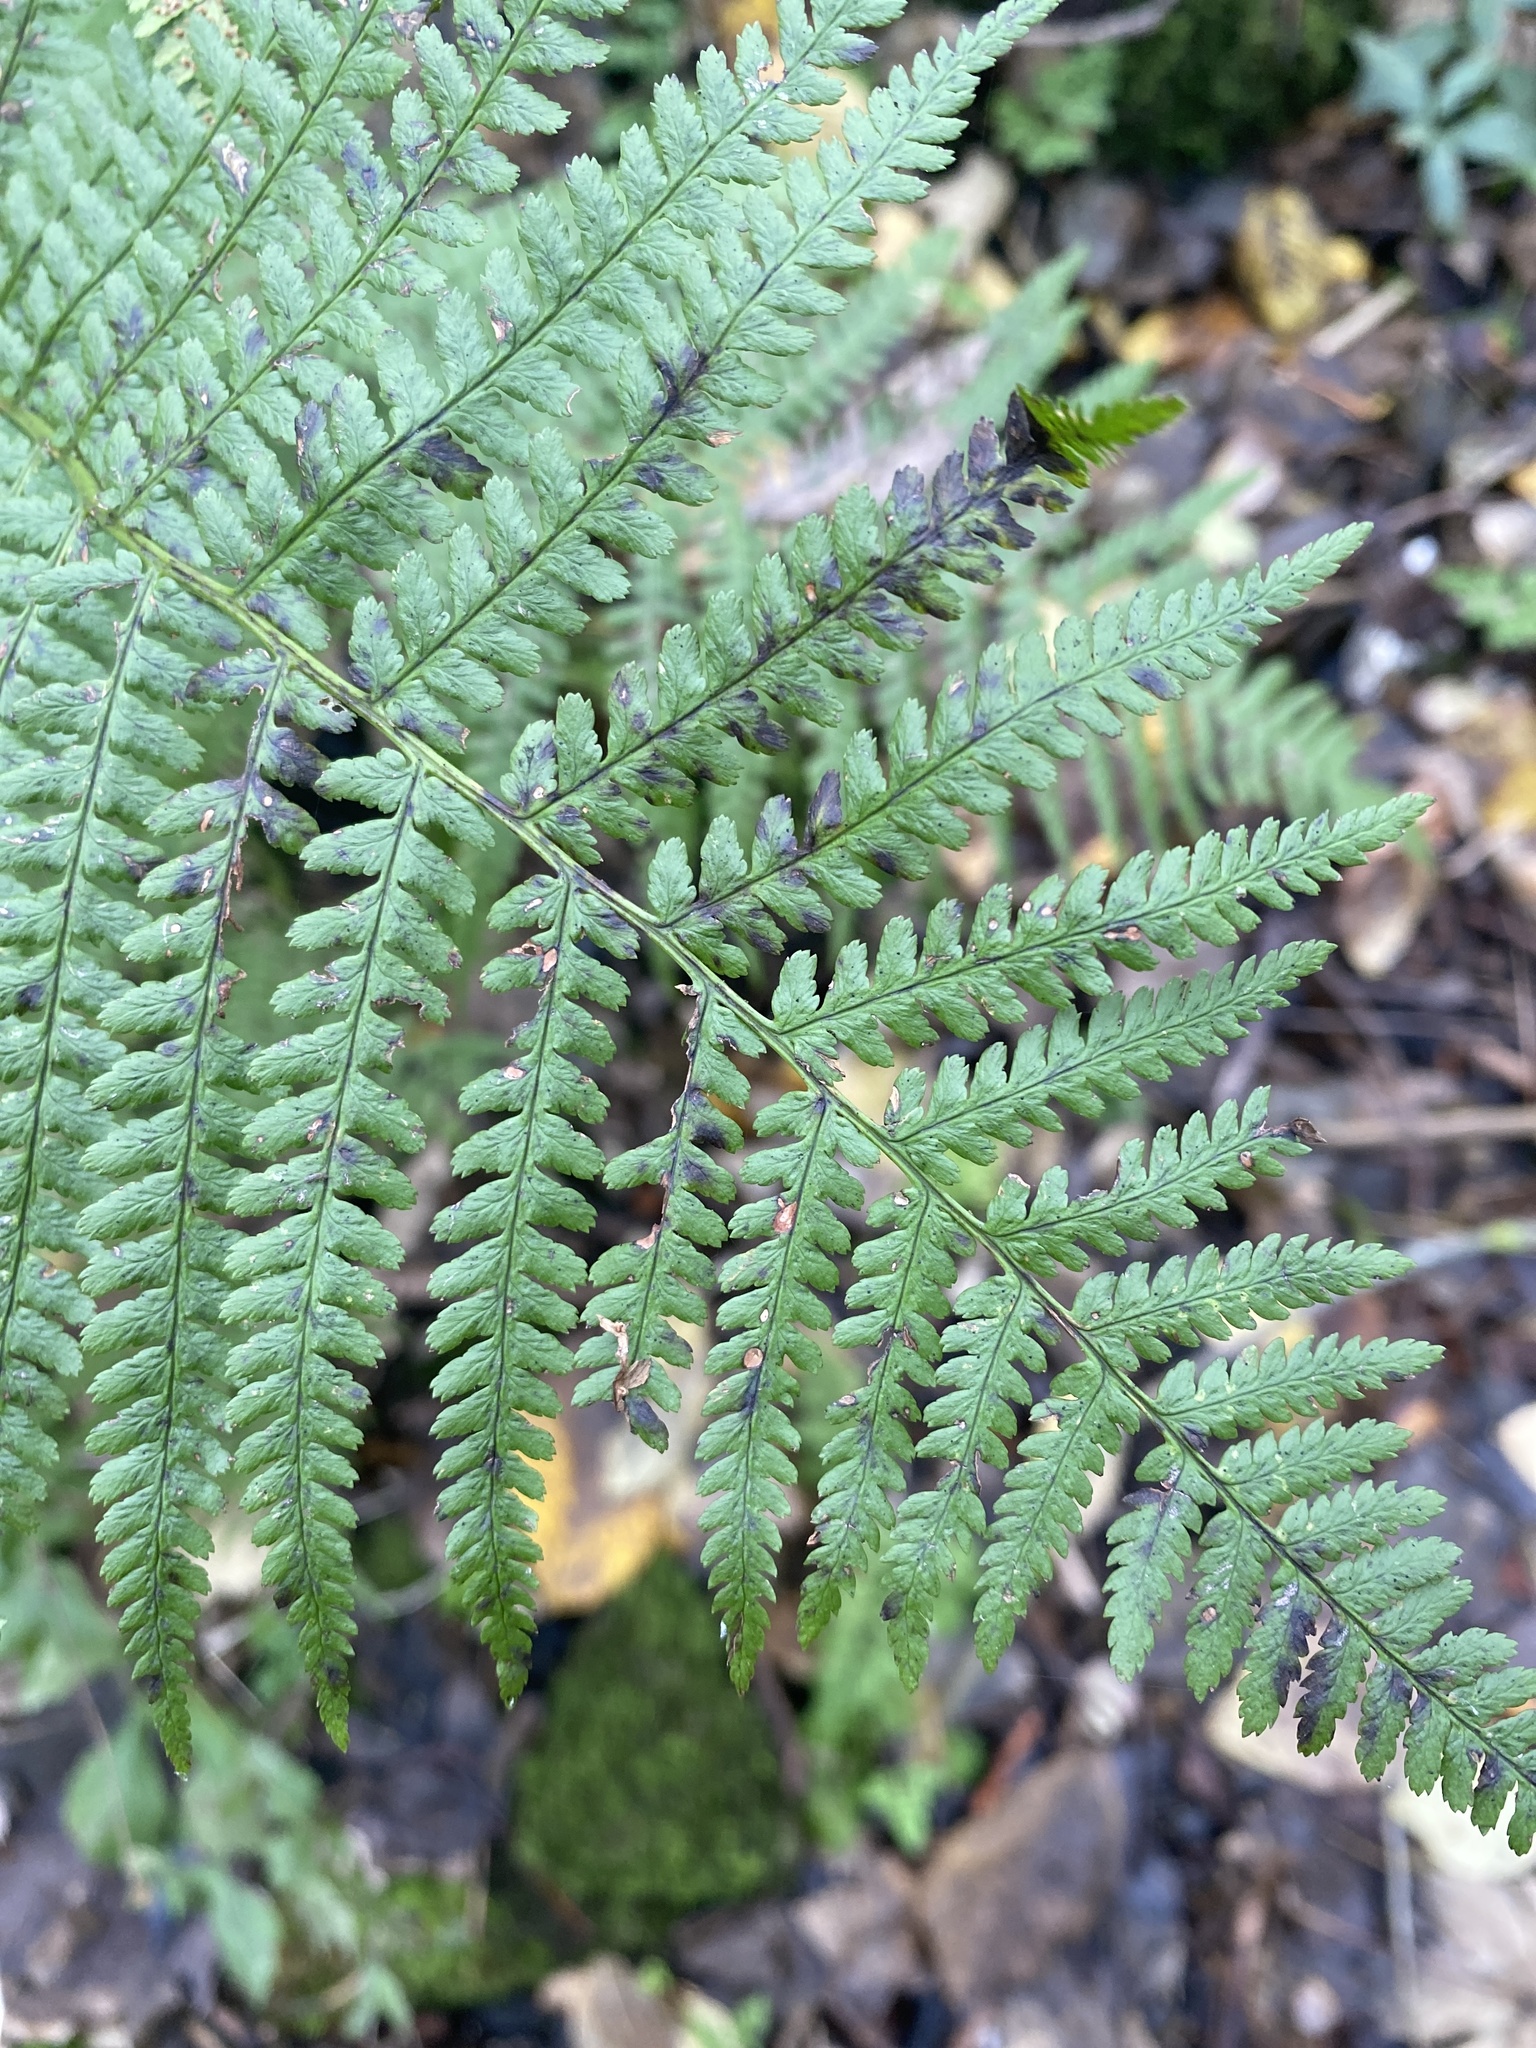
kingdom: Plantae
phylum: Tracheophyta
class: Polypodiopsida
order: Polypodiales
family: Dryopteridaceae
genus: Dryopteris
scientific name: Dryopteris filix-mas
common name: Male fern
